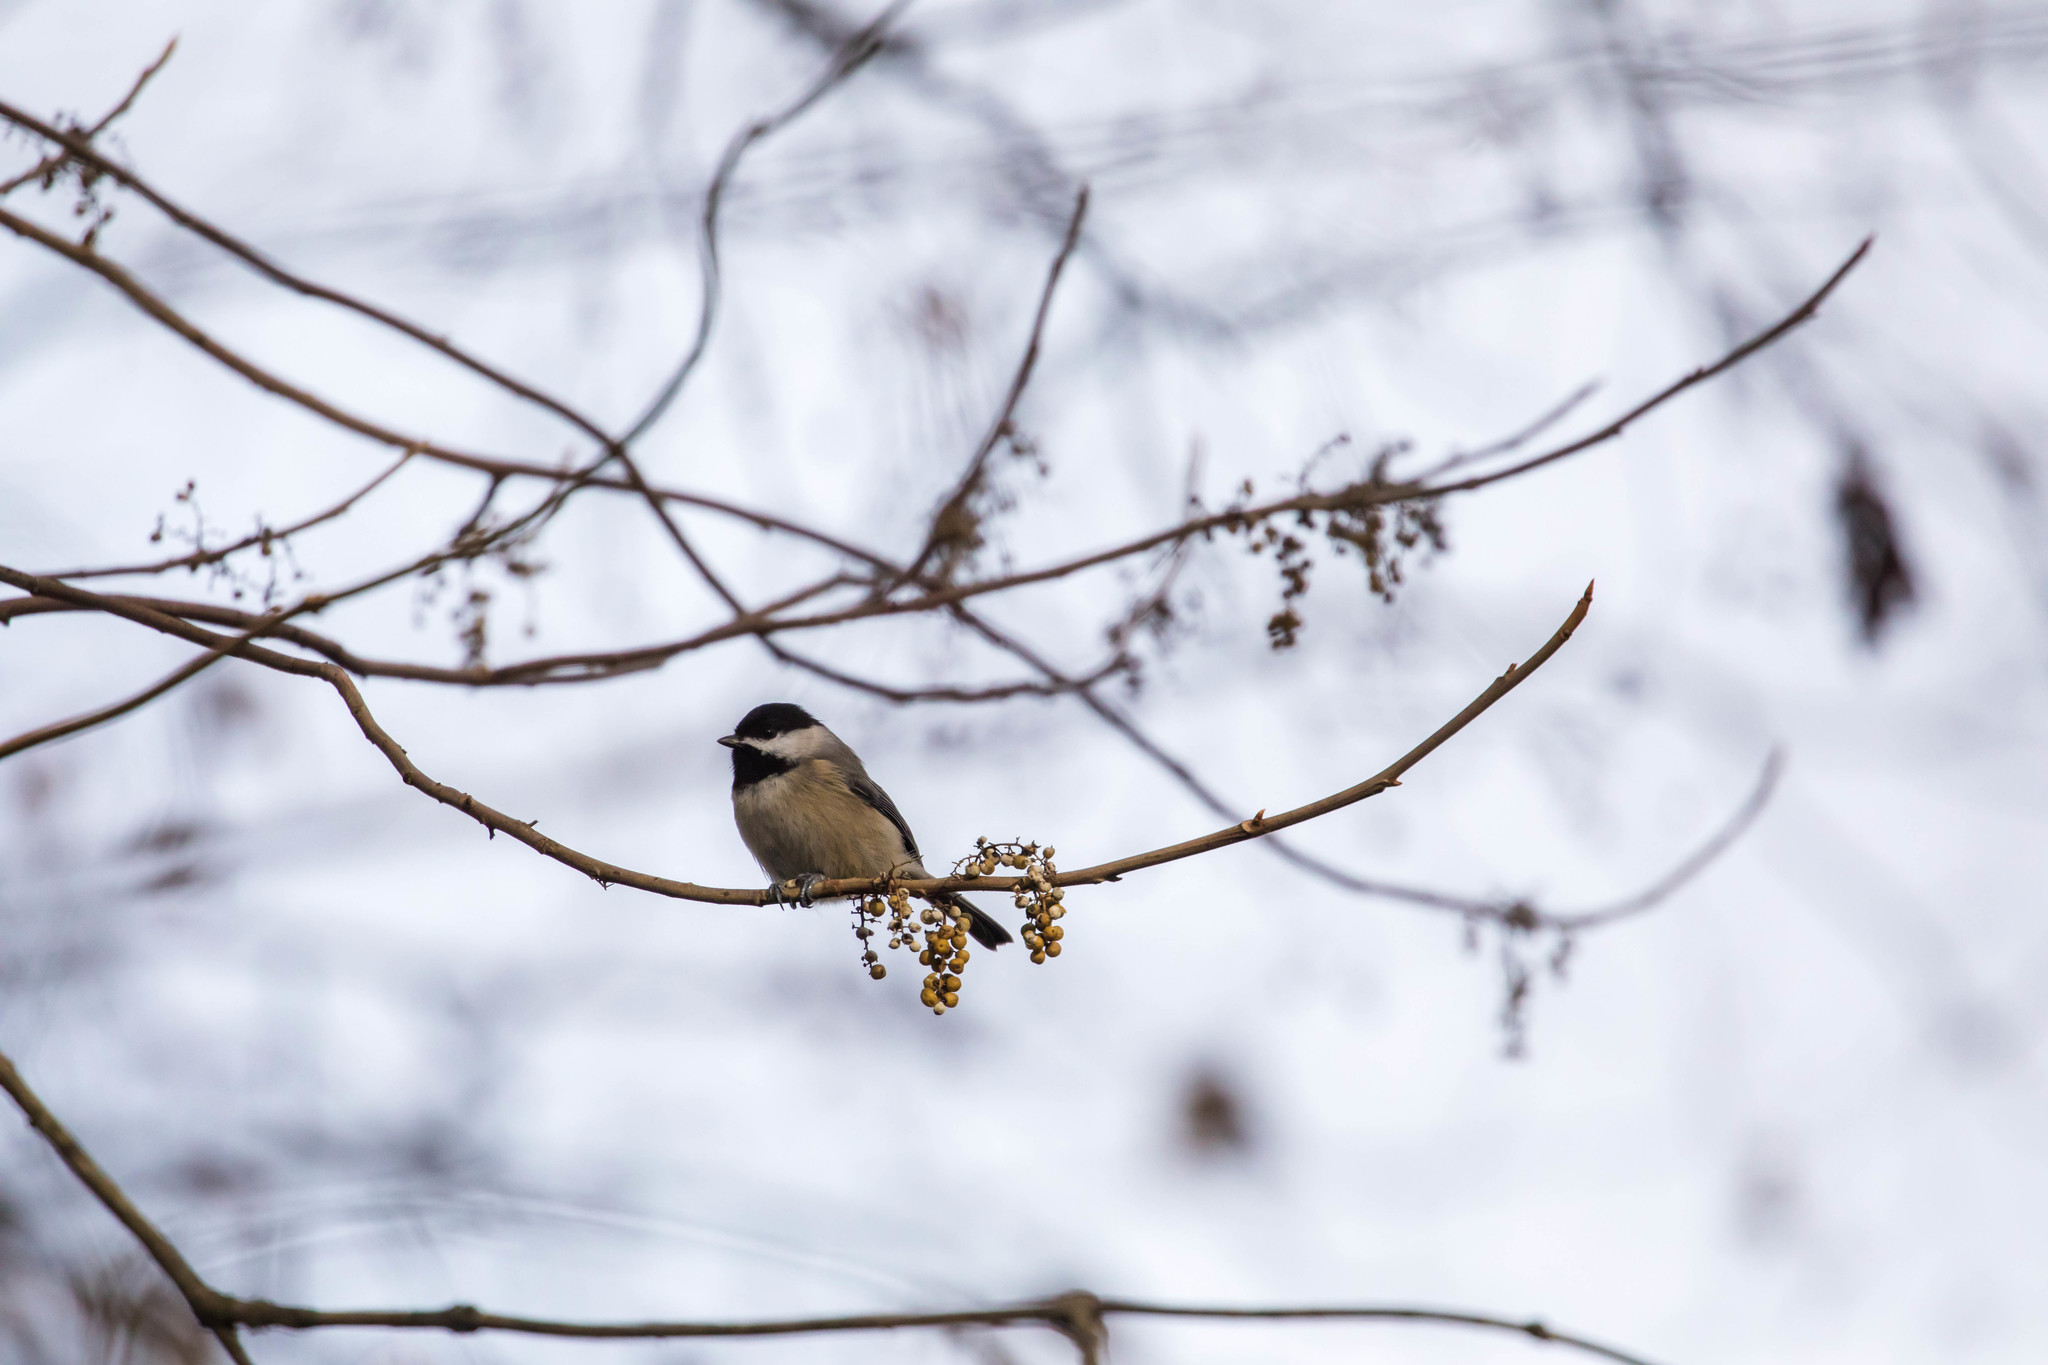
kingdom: Animalia
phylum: Chordata
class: Aves
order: Passeriformes
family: Paridae
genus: Poecile
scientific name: Poecile carolinensis
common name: Carolina chickadee
